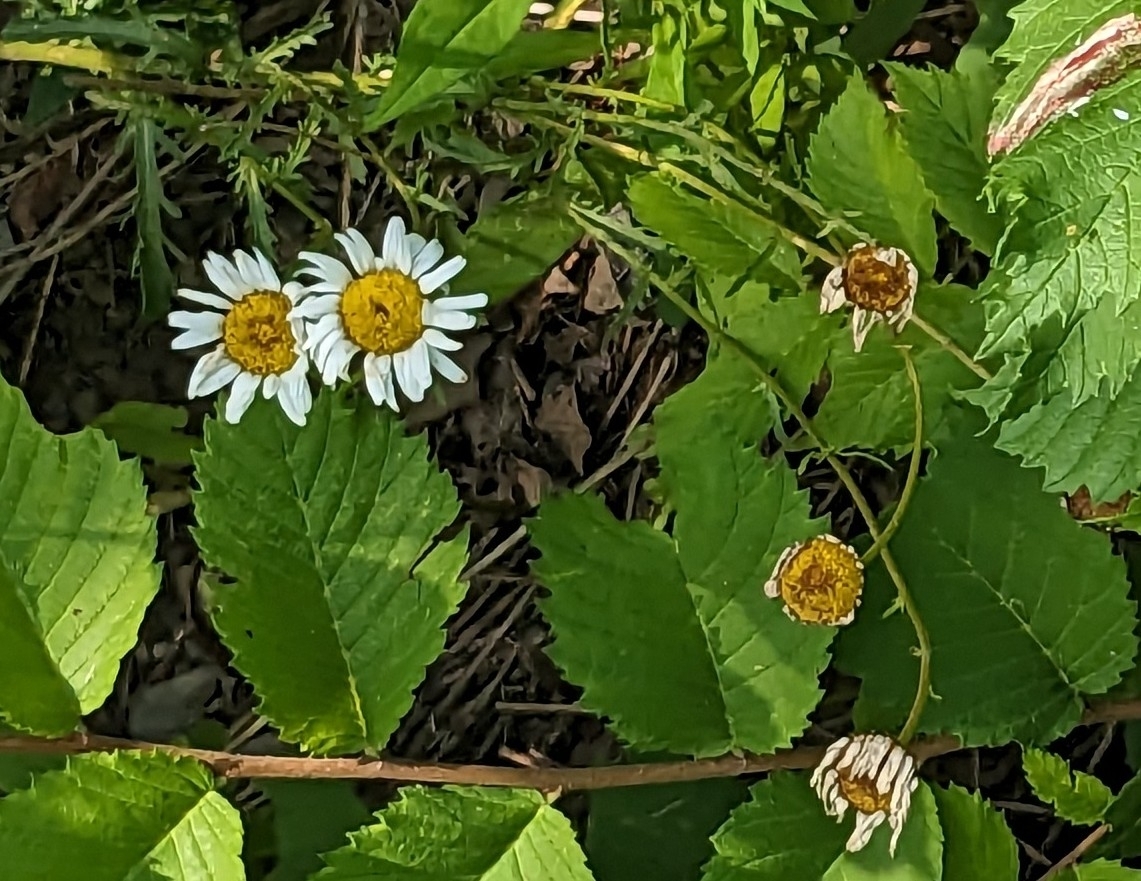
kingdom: Plantae
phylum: Tracheophyta
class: Magnoliopsida
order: Asterales
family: Asteraceae
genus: Leucanthemum
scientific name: Leucanthemum vulgare
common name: Oxeye daisy
